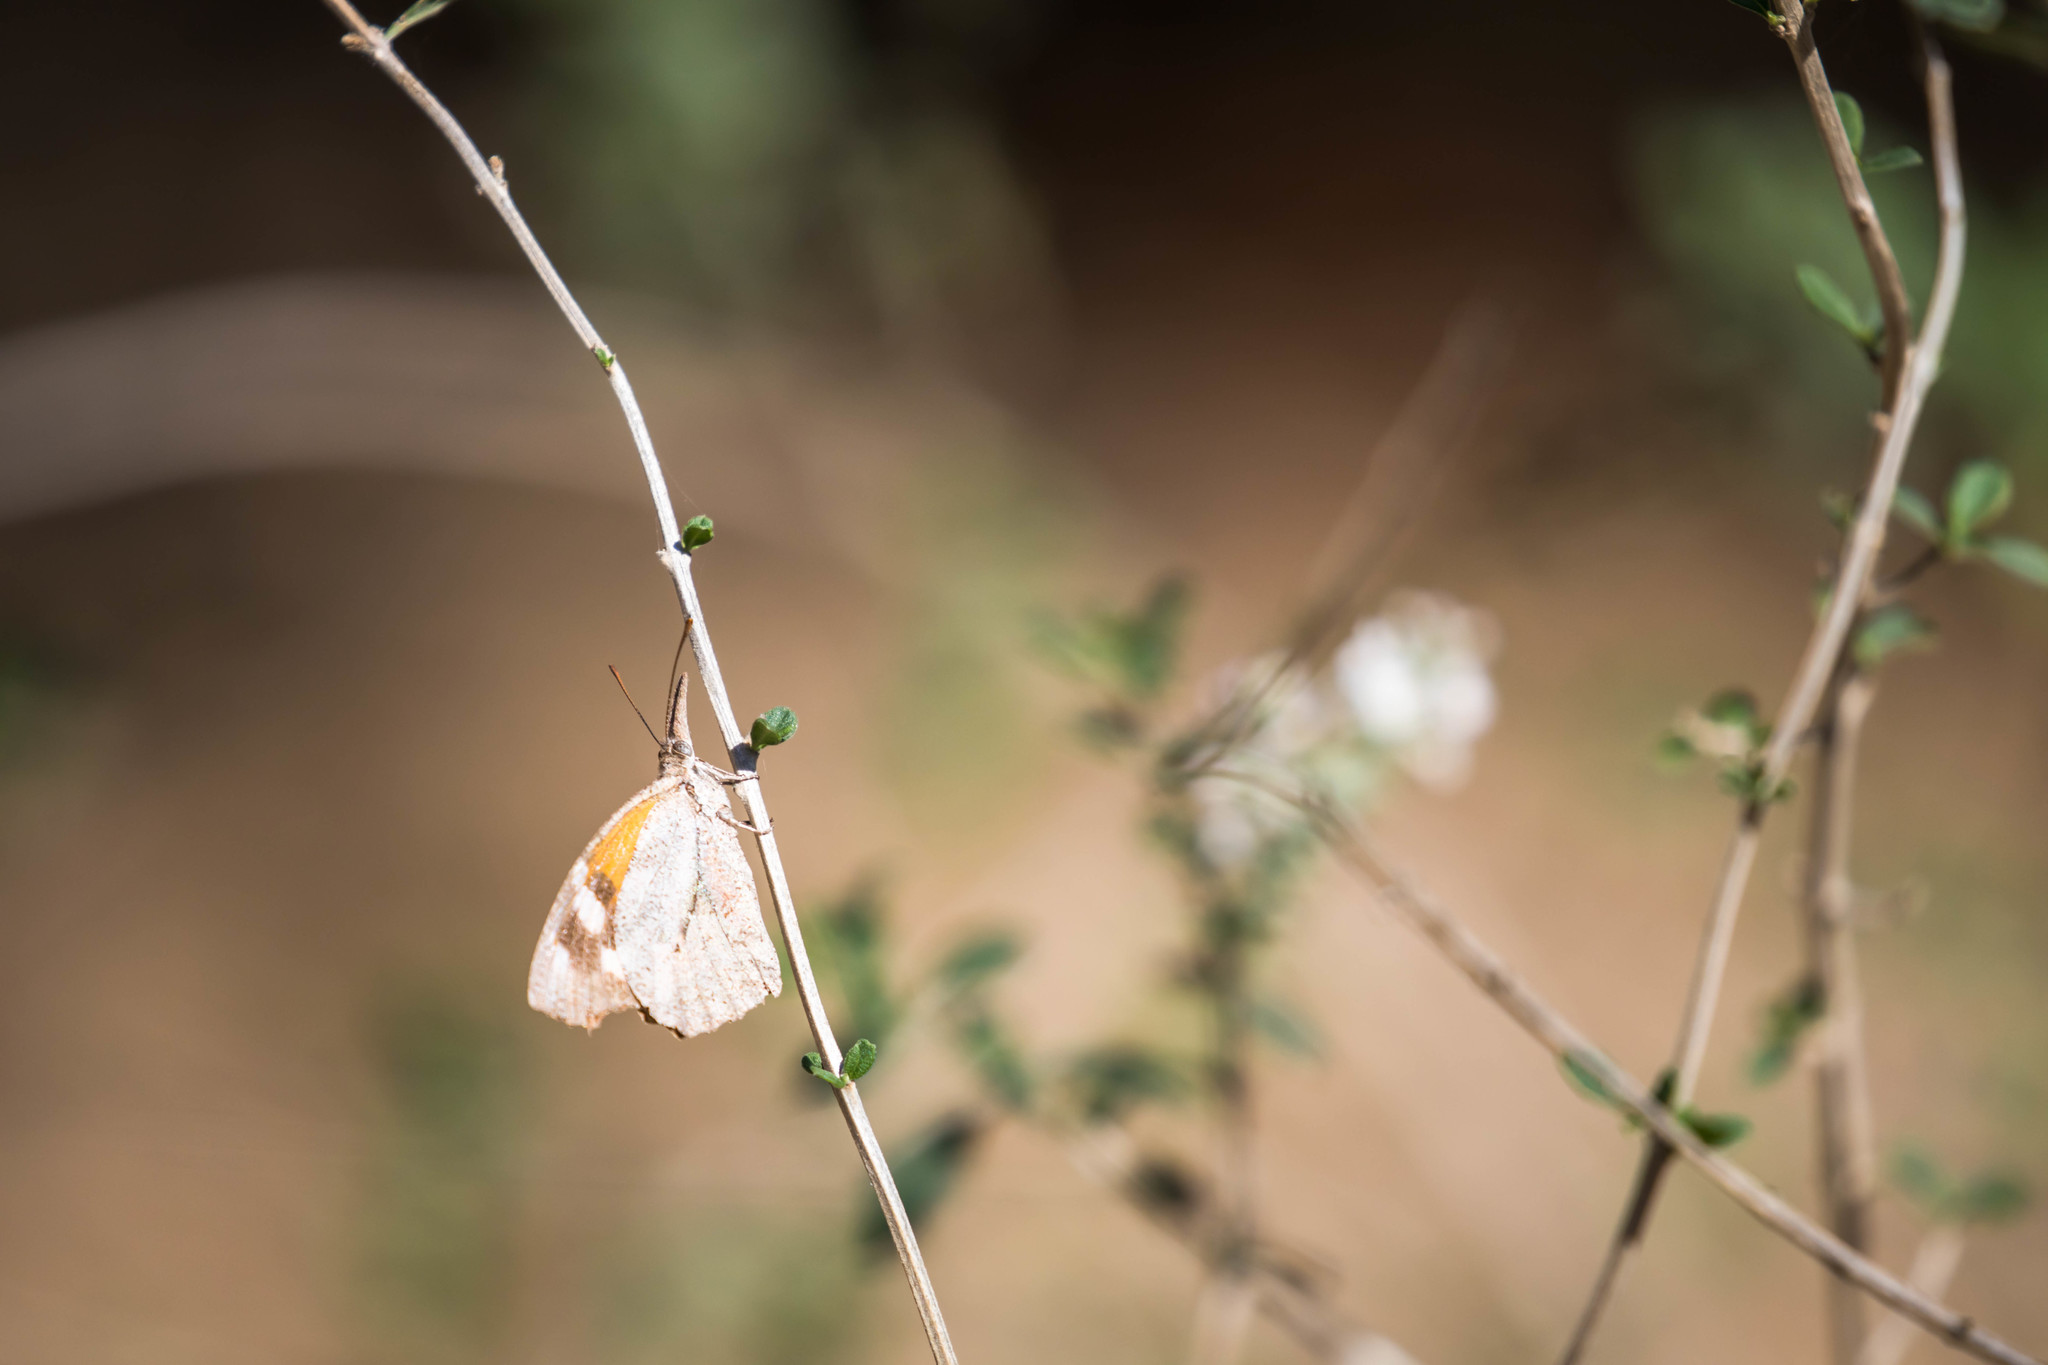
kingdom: Animalia
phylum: Arthropoda
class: Insecta
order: Lepidoptera
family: Nymphalidae
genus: Libytheana
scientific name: Libytheana carinenta
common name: American snout
